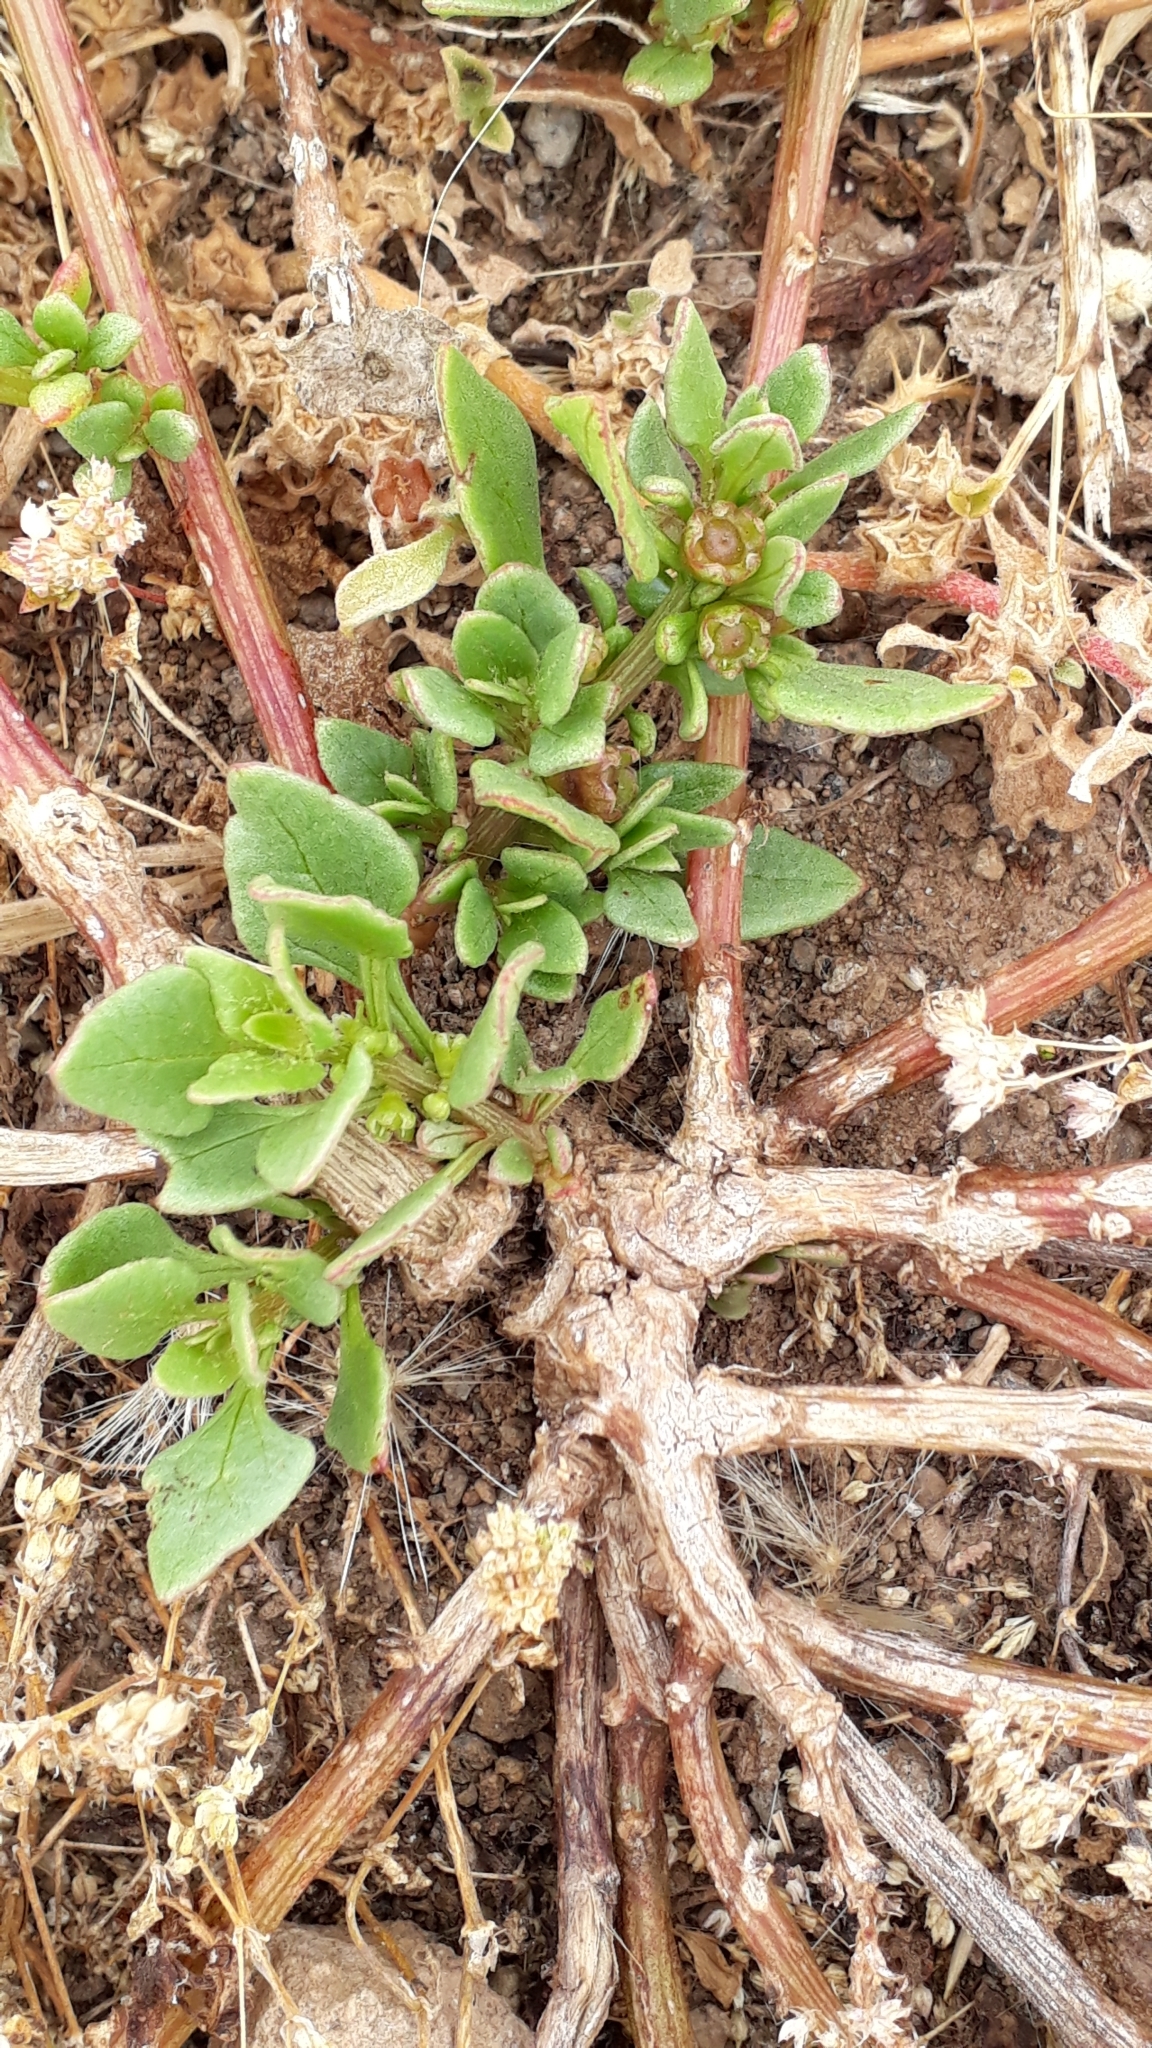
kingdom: Plantae
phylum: Tracheophyta
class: Magnoliopsida
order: Caryophyllales
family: Amaranthaceae
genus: Patellifolia
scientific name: Patellifolia procumbens
